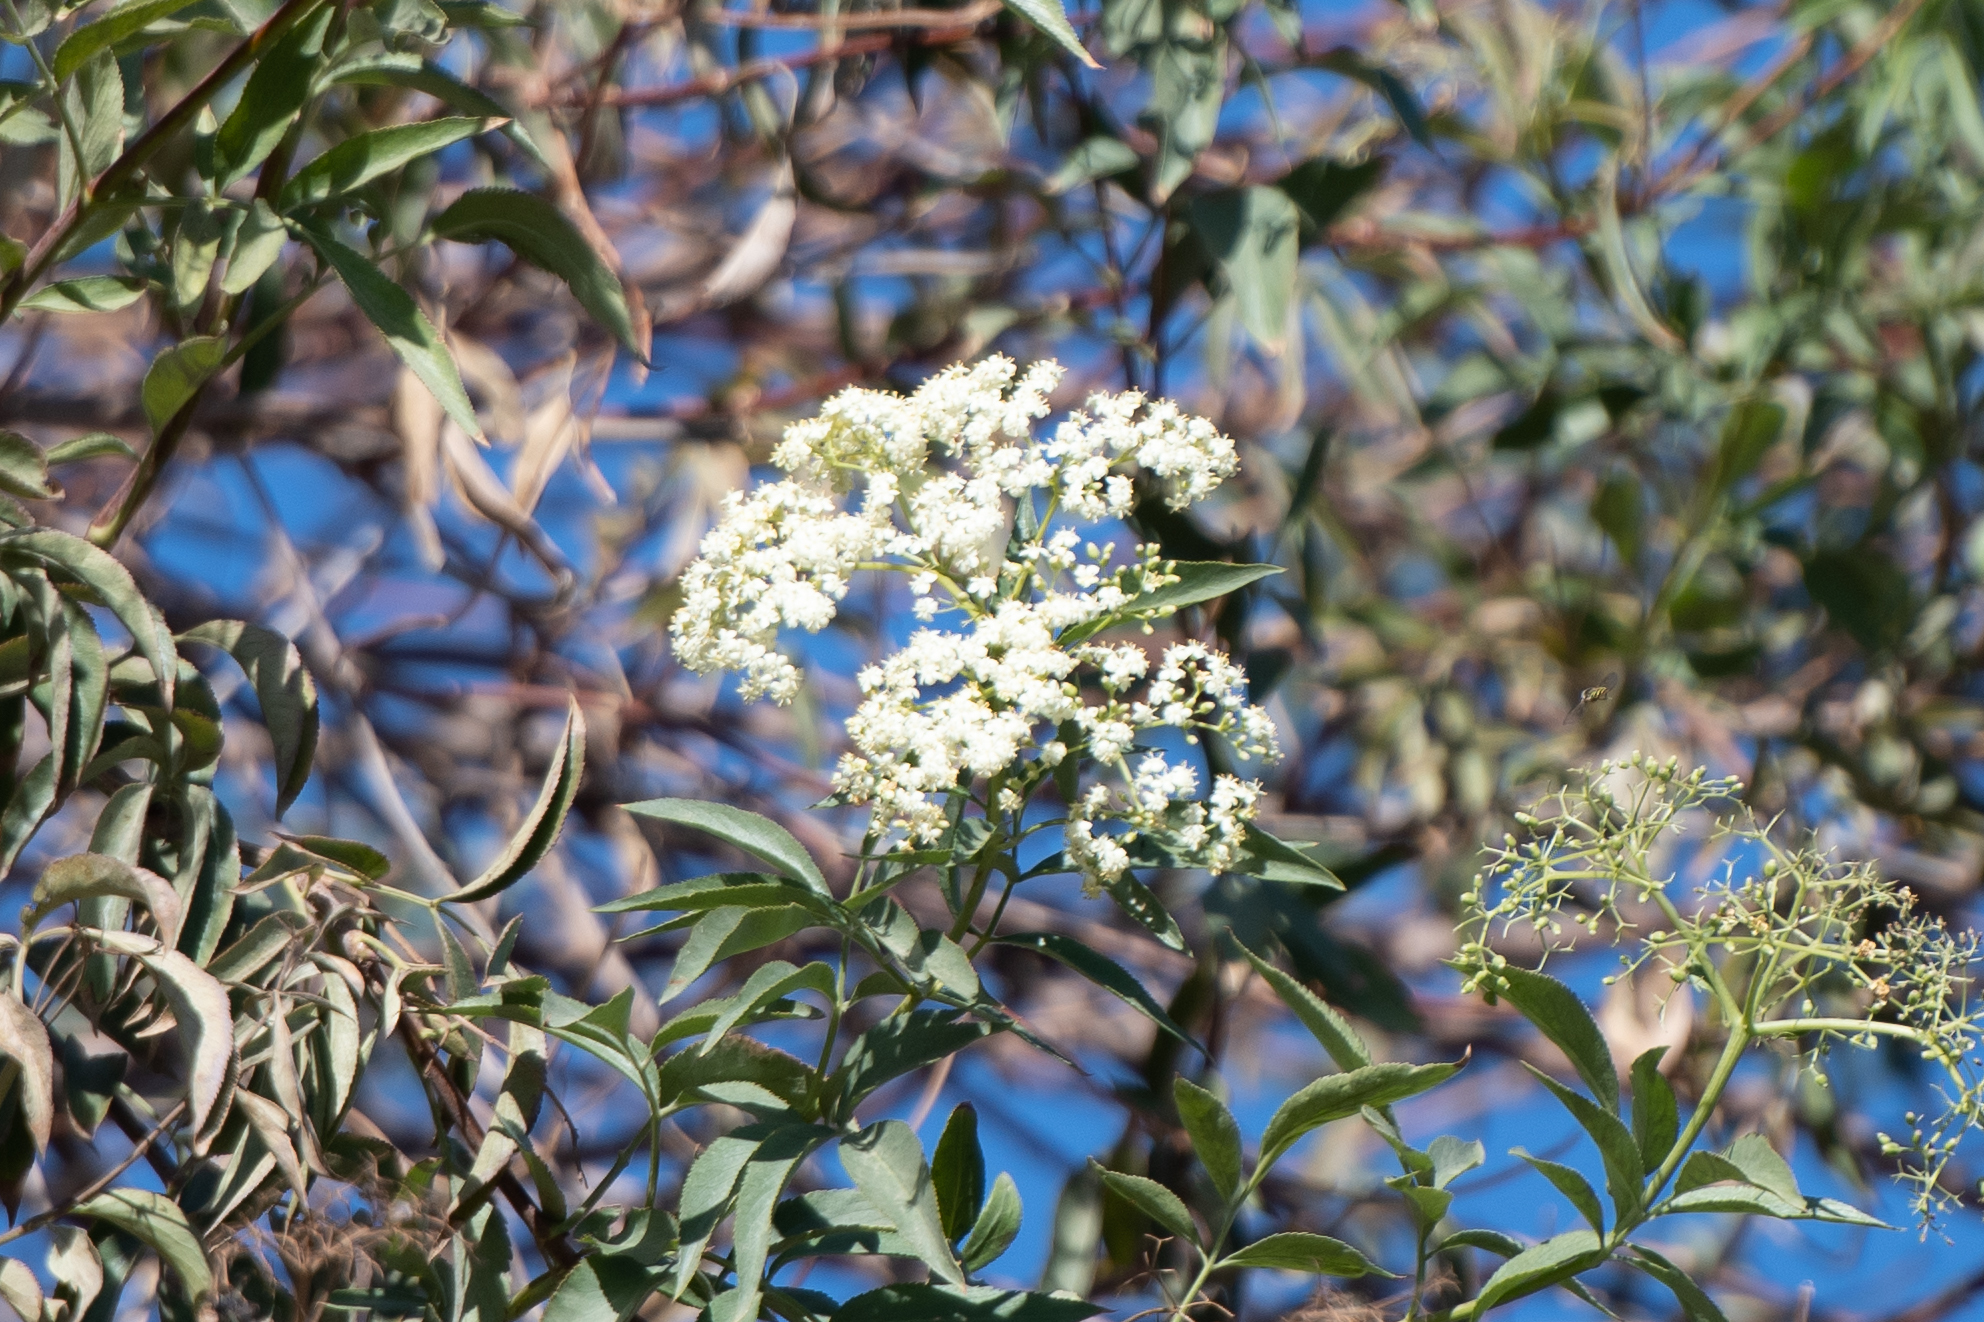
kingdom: Plantae
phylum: Tracheophyta
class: Magnoliopsida
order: Dipsacales
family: Viburnaceae
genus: Sambucus
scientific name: Sambucus cerulea
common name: Blue elder
